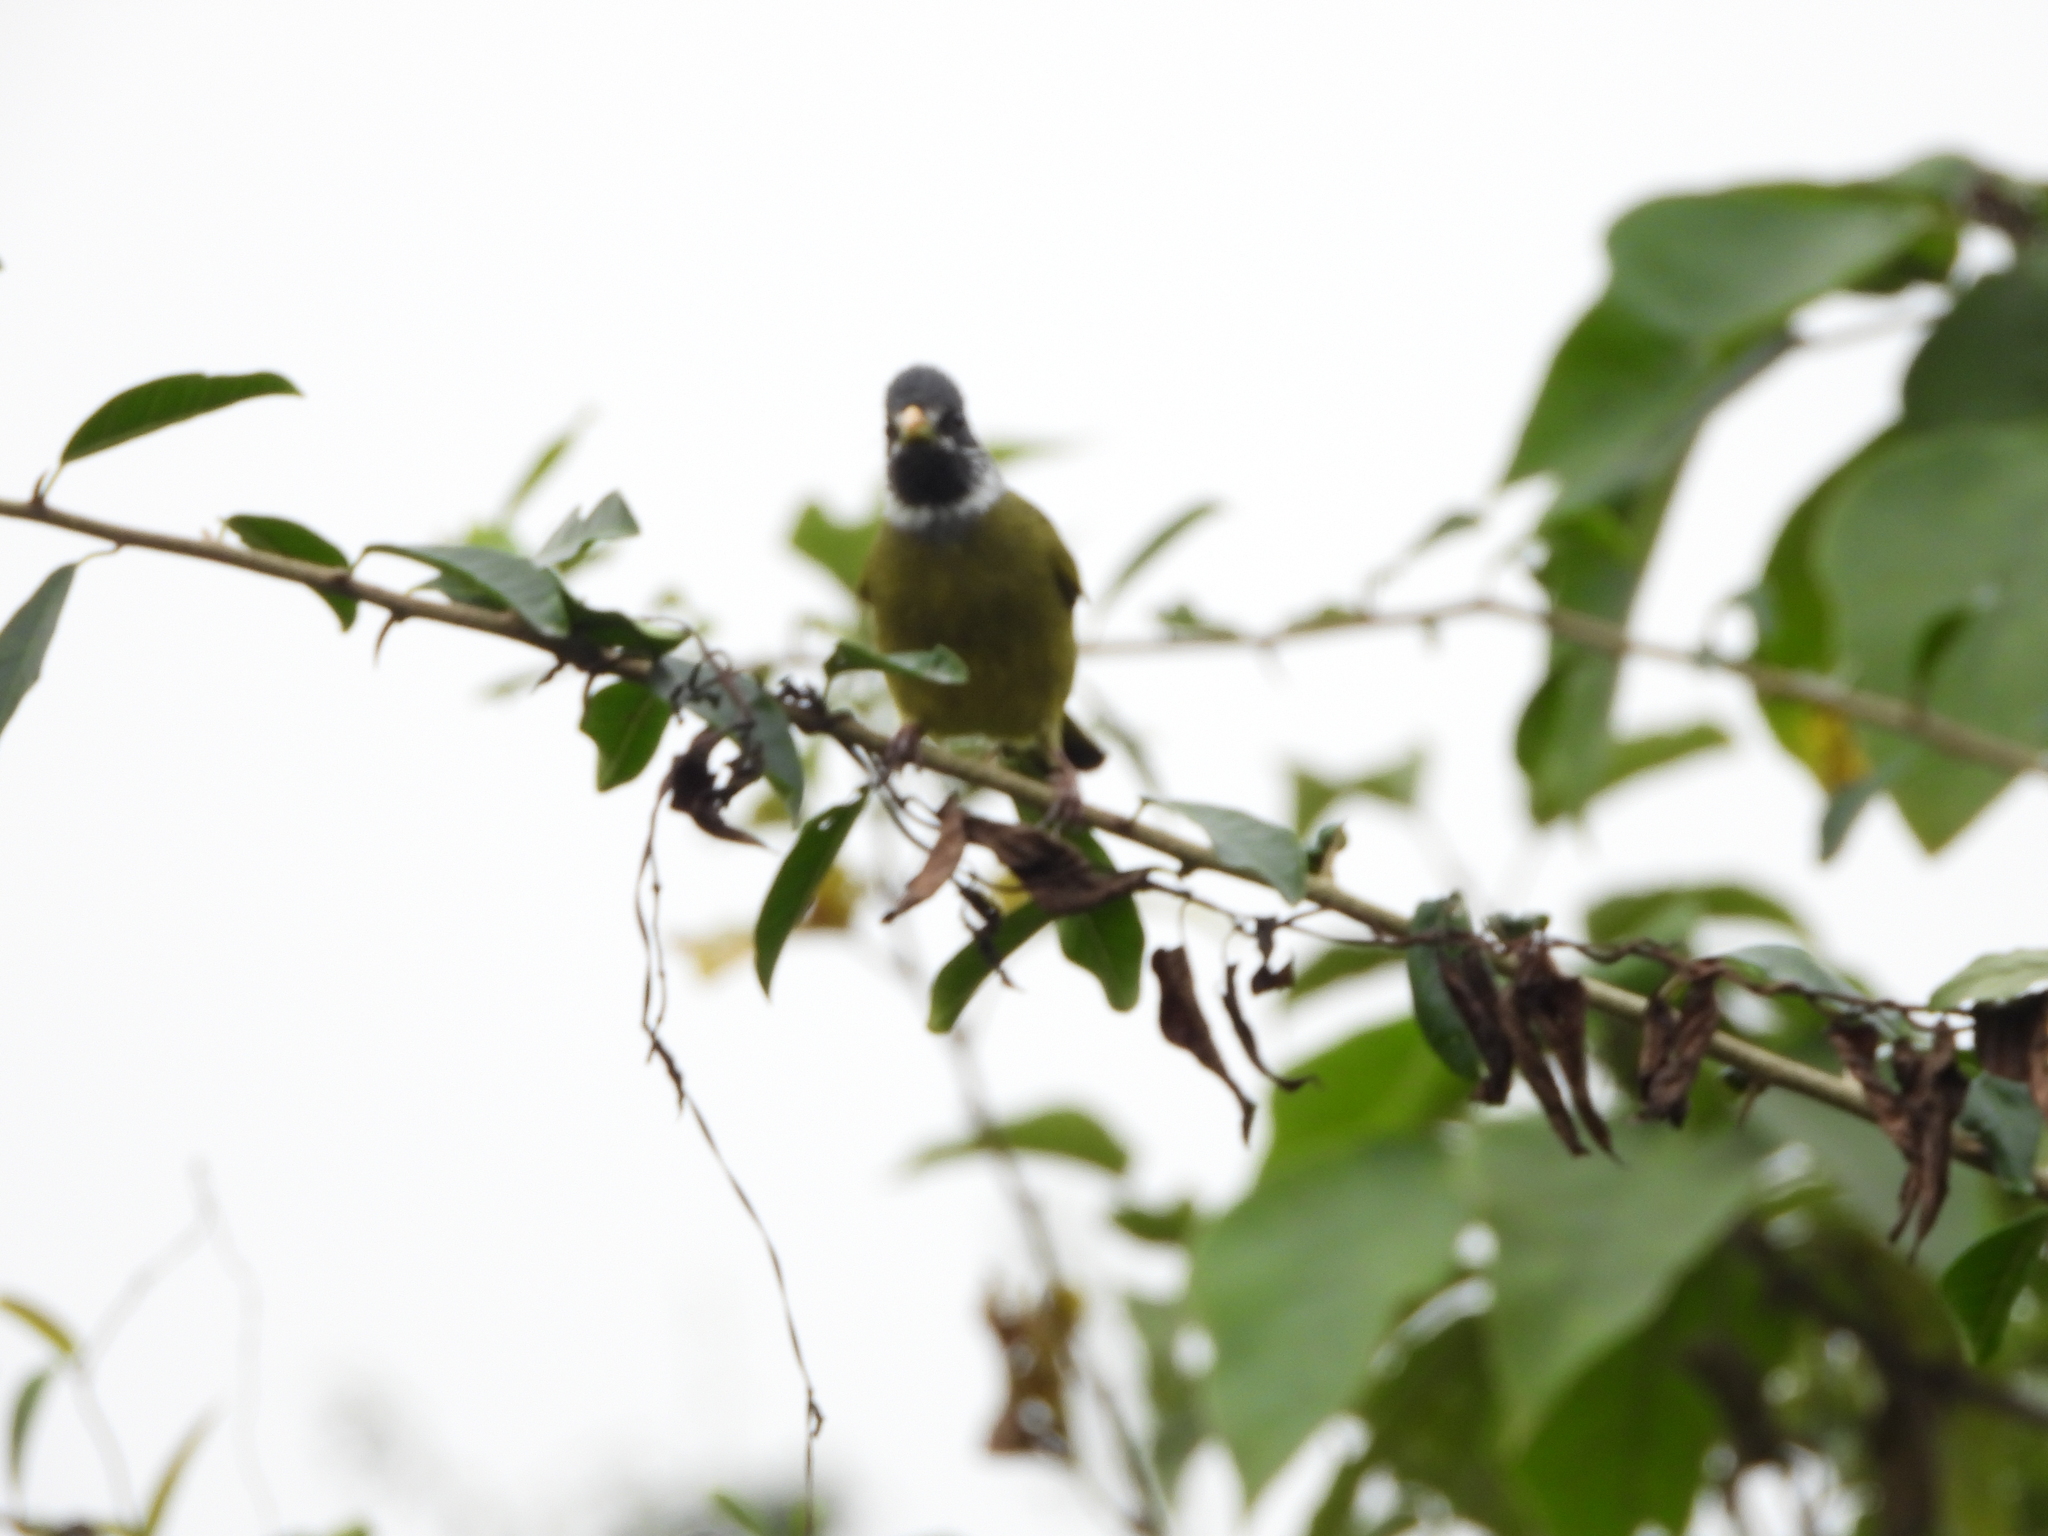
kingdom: Animalia
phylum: Chordata
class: Aves
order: Passeriformes
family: Pycnonotidae
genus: Spizixos
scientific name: Spizixos semitorques
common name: Collared finchbill
